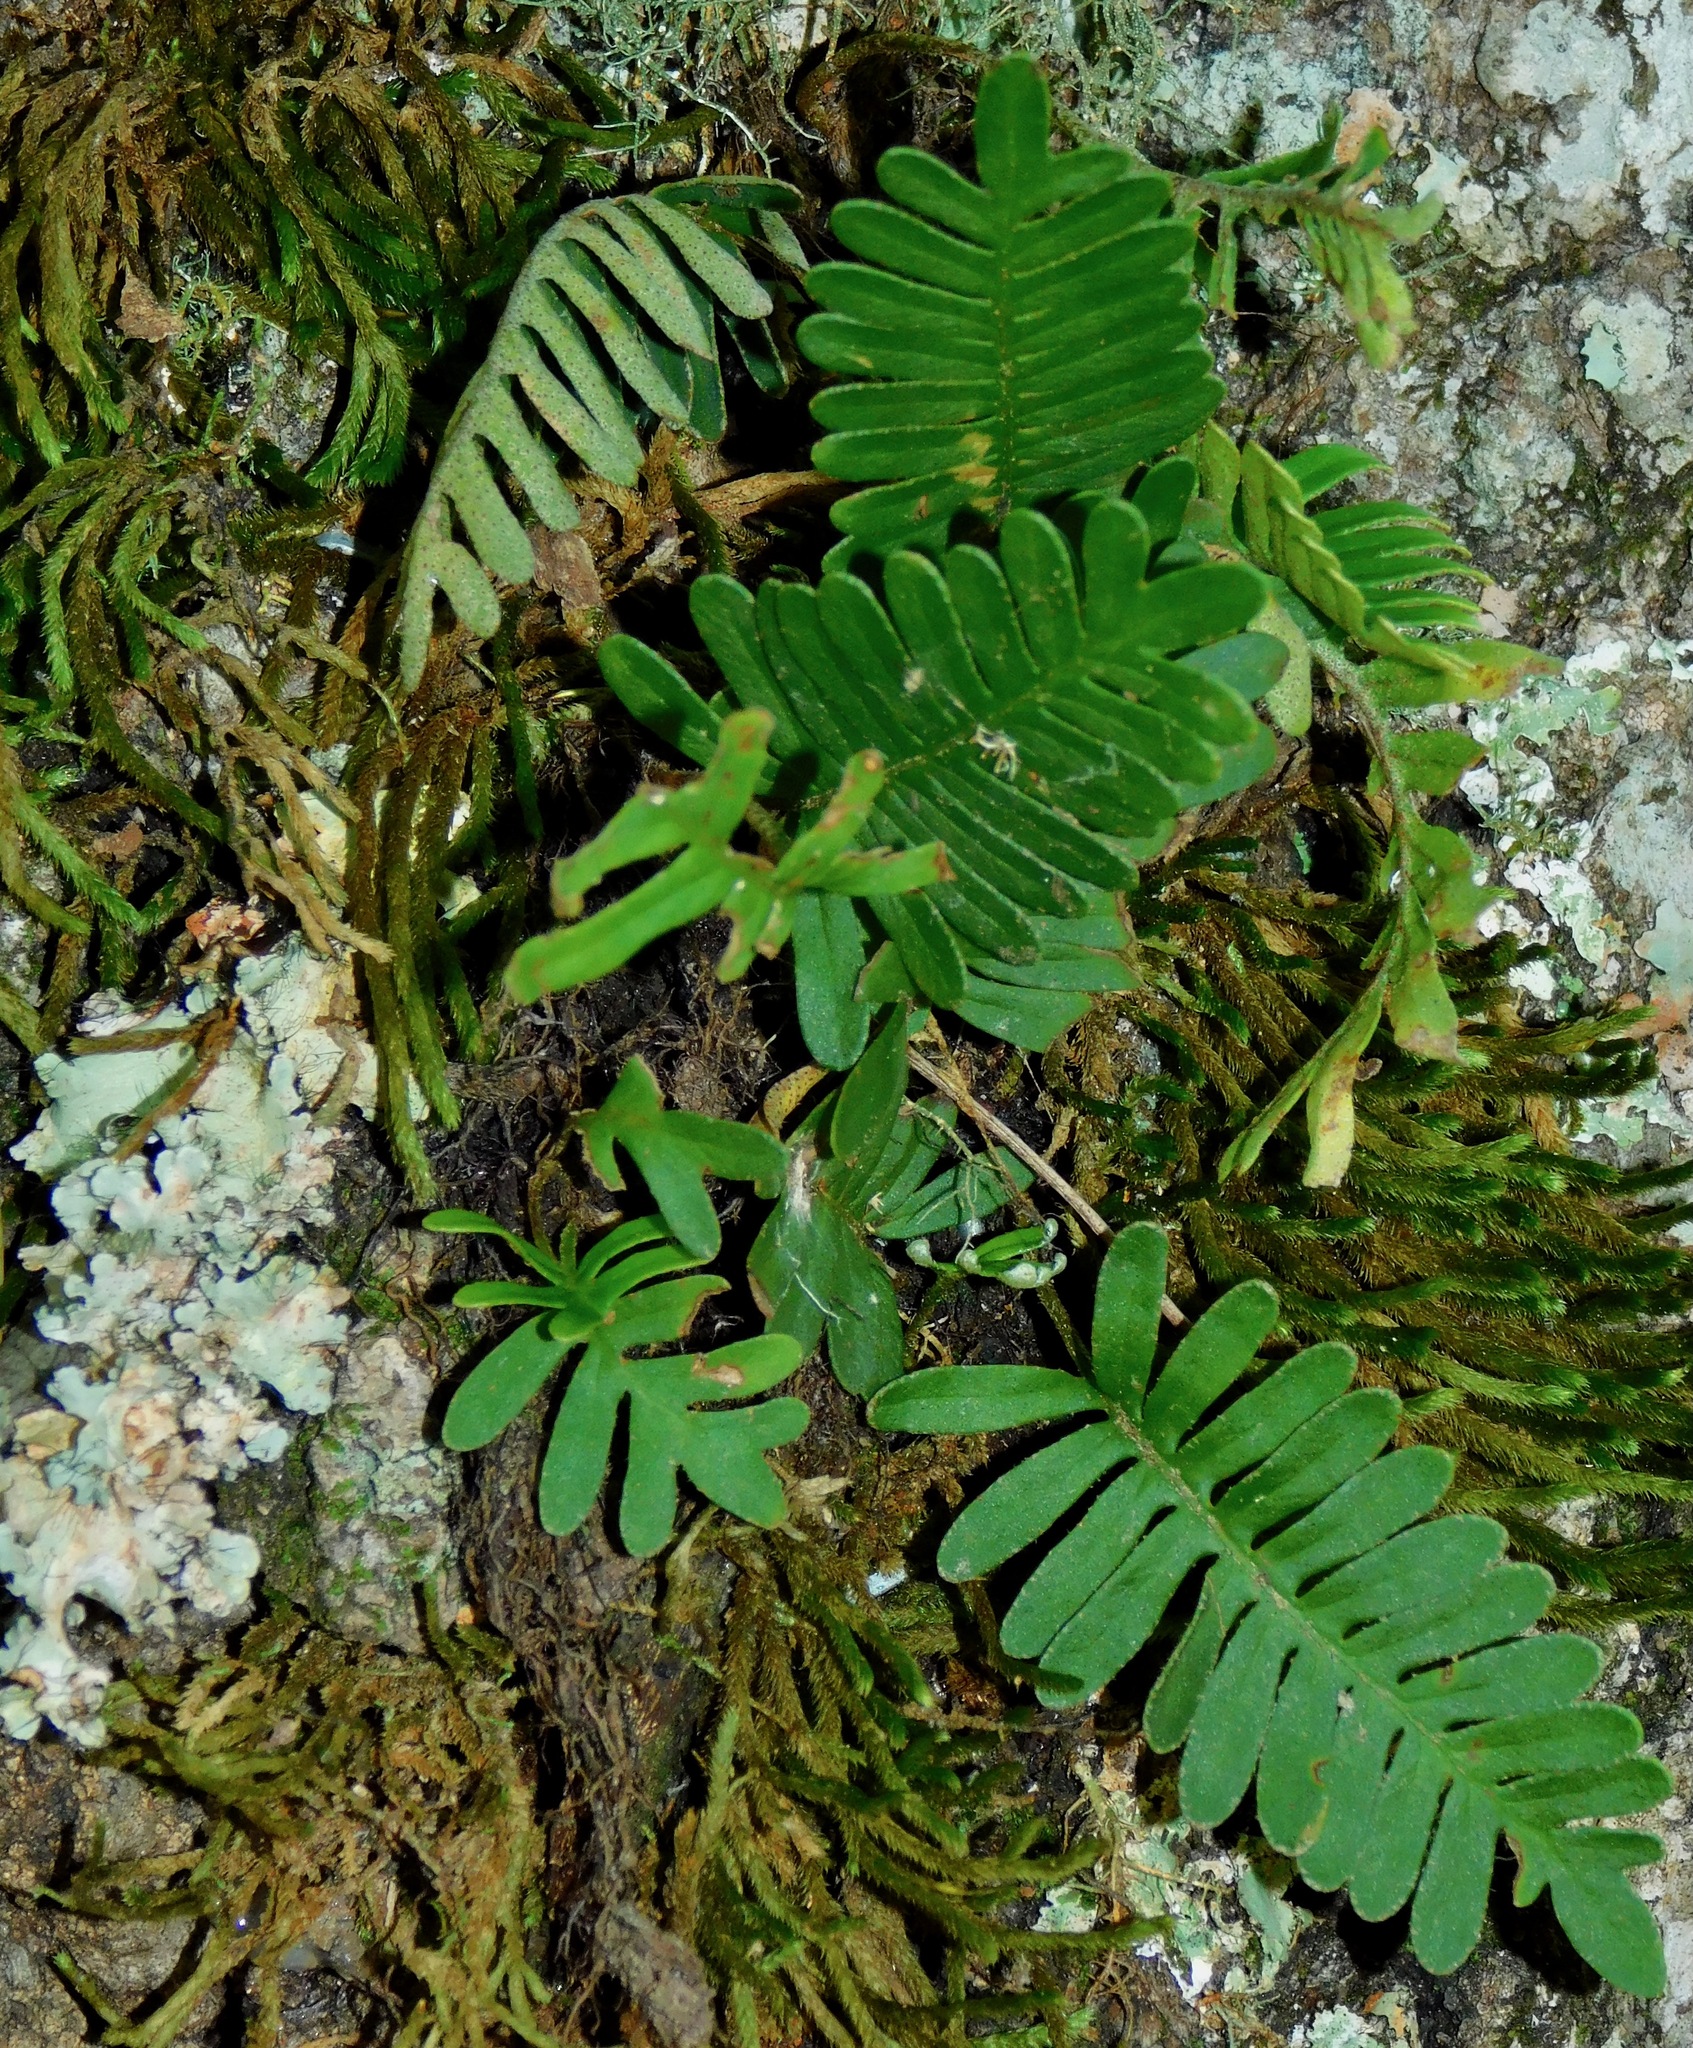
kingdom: Plantae
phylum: Tracheophyta
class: Polypodiopsida
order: Polypodiales
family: Polypodiaceae
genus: Pleopeltis
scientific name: Pleopeltis michauxiana
